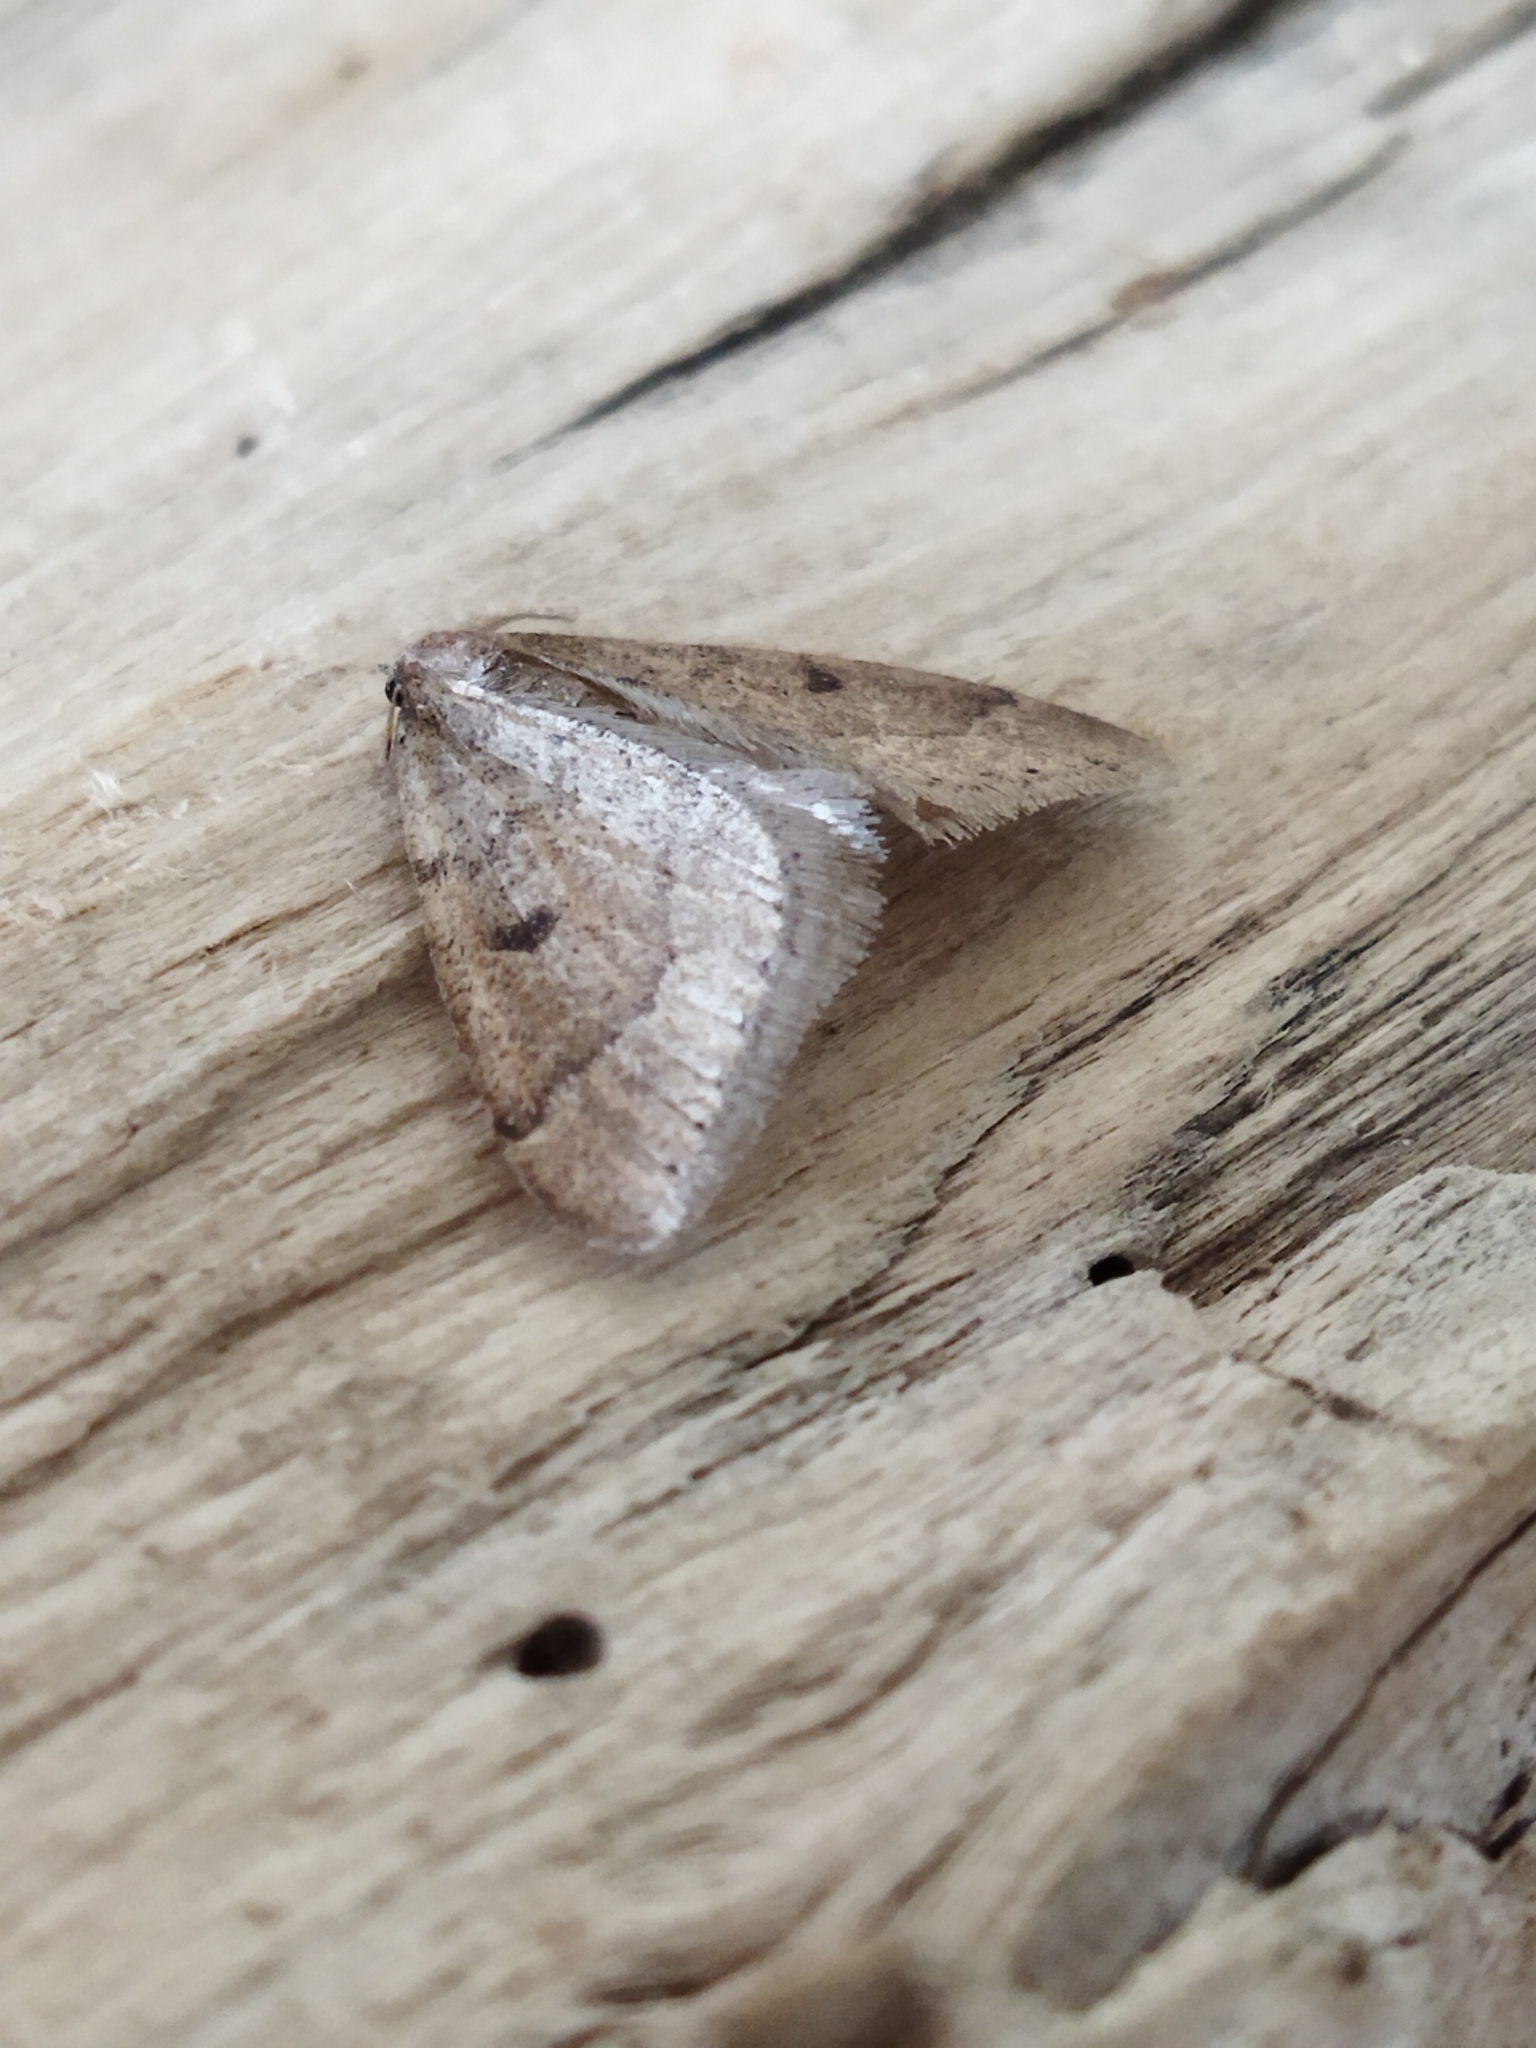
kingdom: Animalia
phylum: Arthropoda
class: Insecta
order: Lepidoptera
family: Geometridae
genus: Theria
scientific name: Theria rupicapraria
